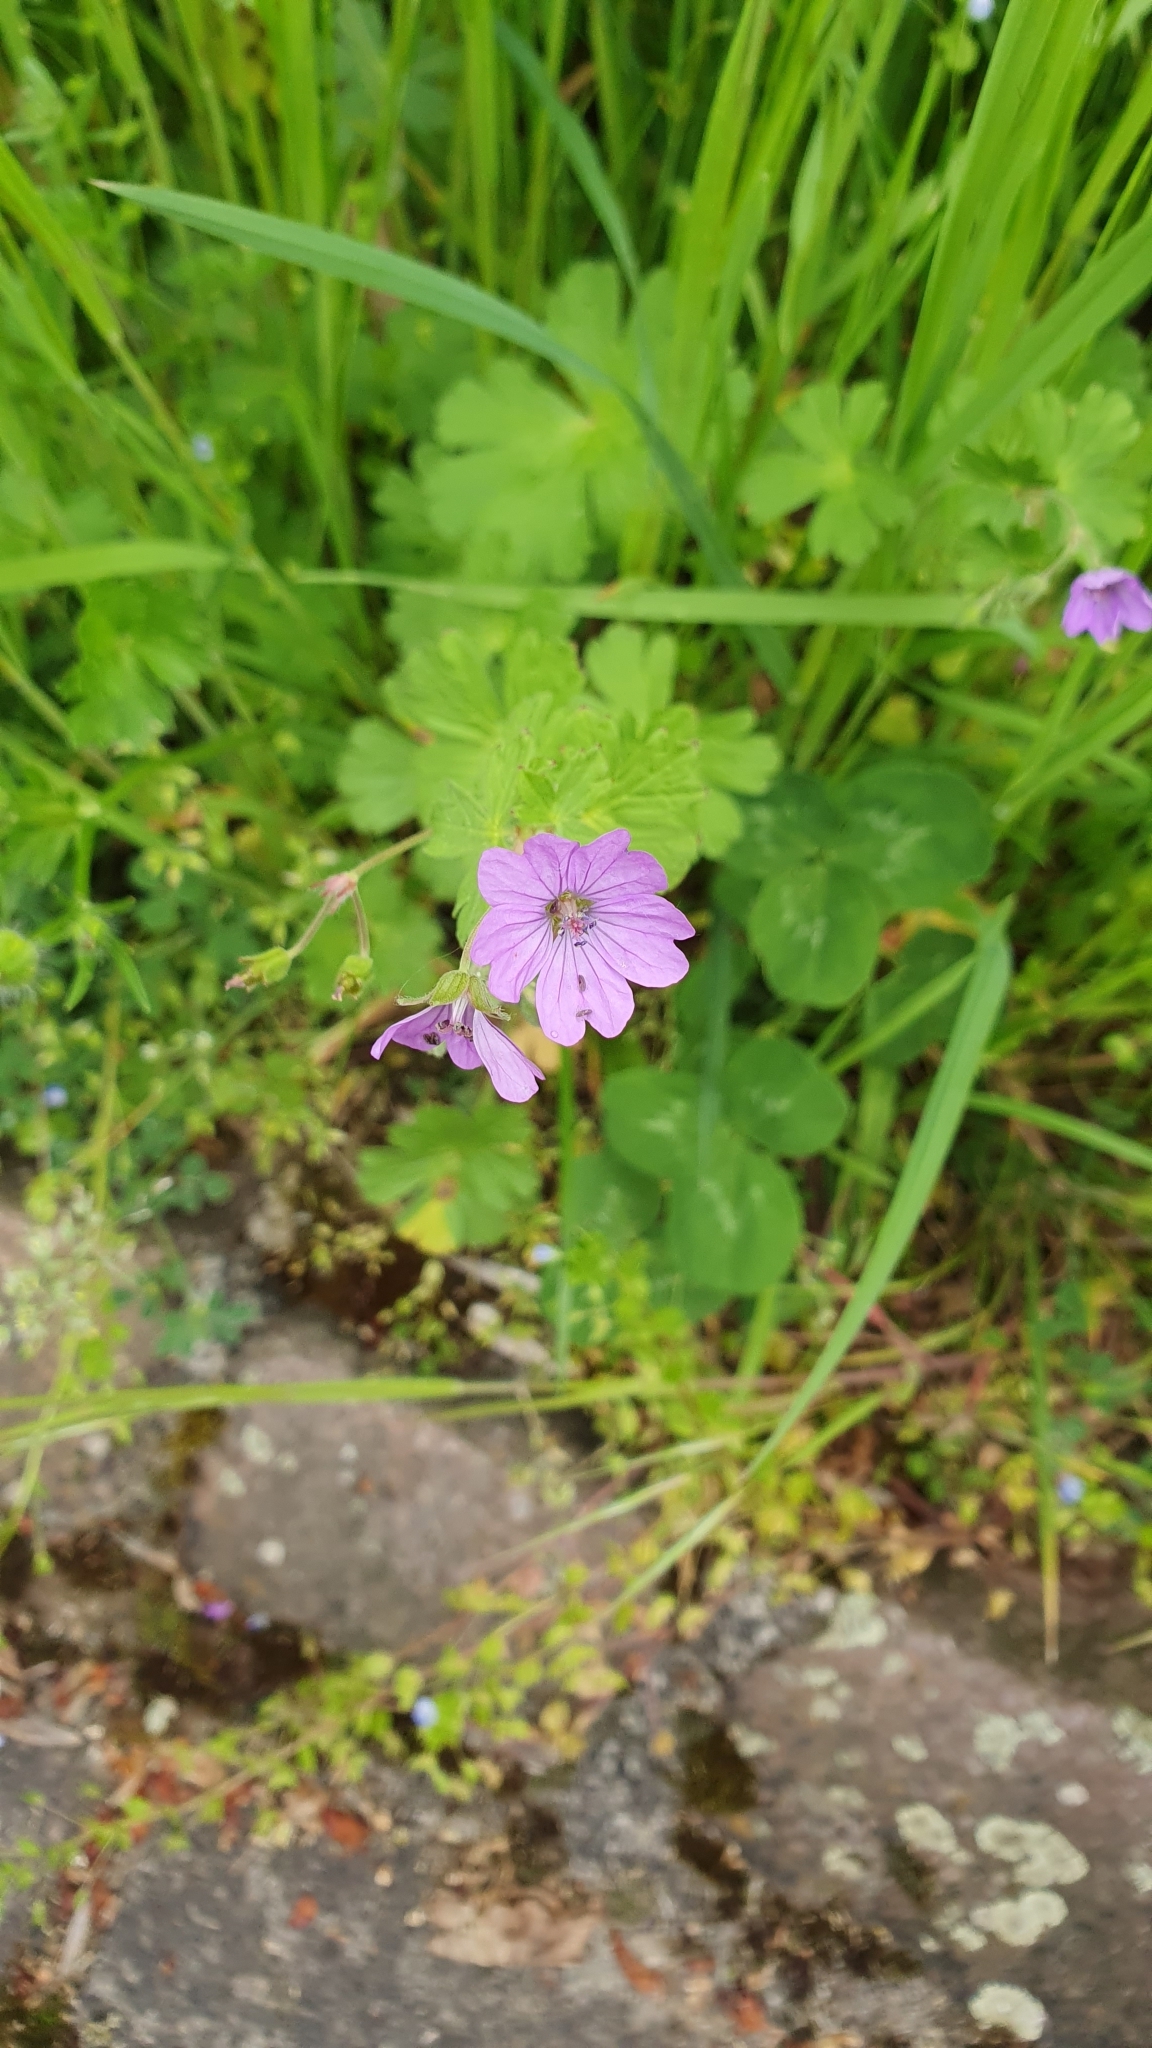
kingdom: Plantae
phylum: Tracheophyta
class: Magnoliopsida
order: Geraniales
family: Geraniaceae
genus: Geranium
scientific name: Geranium pyrenaicum
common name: Hedgerow crane's-bill
